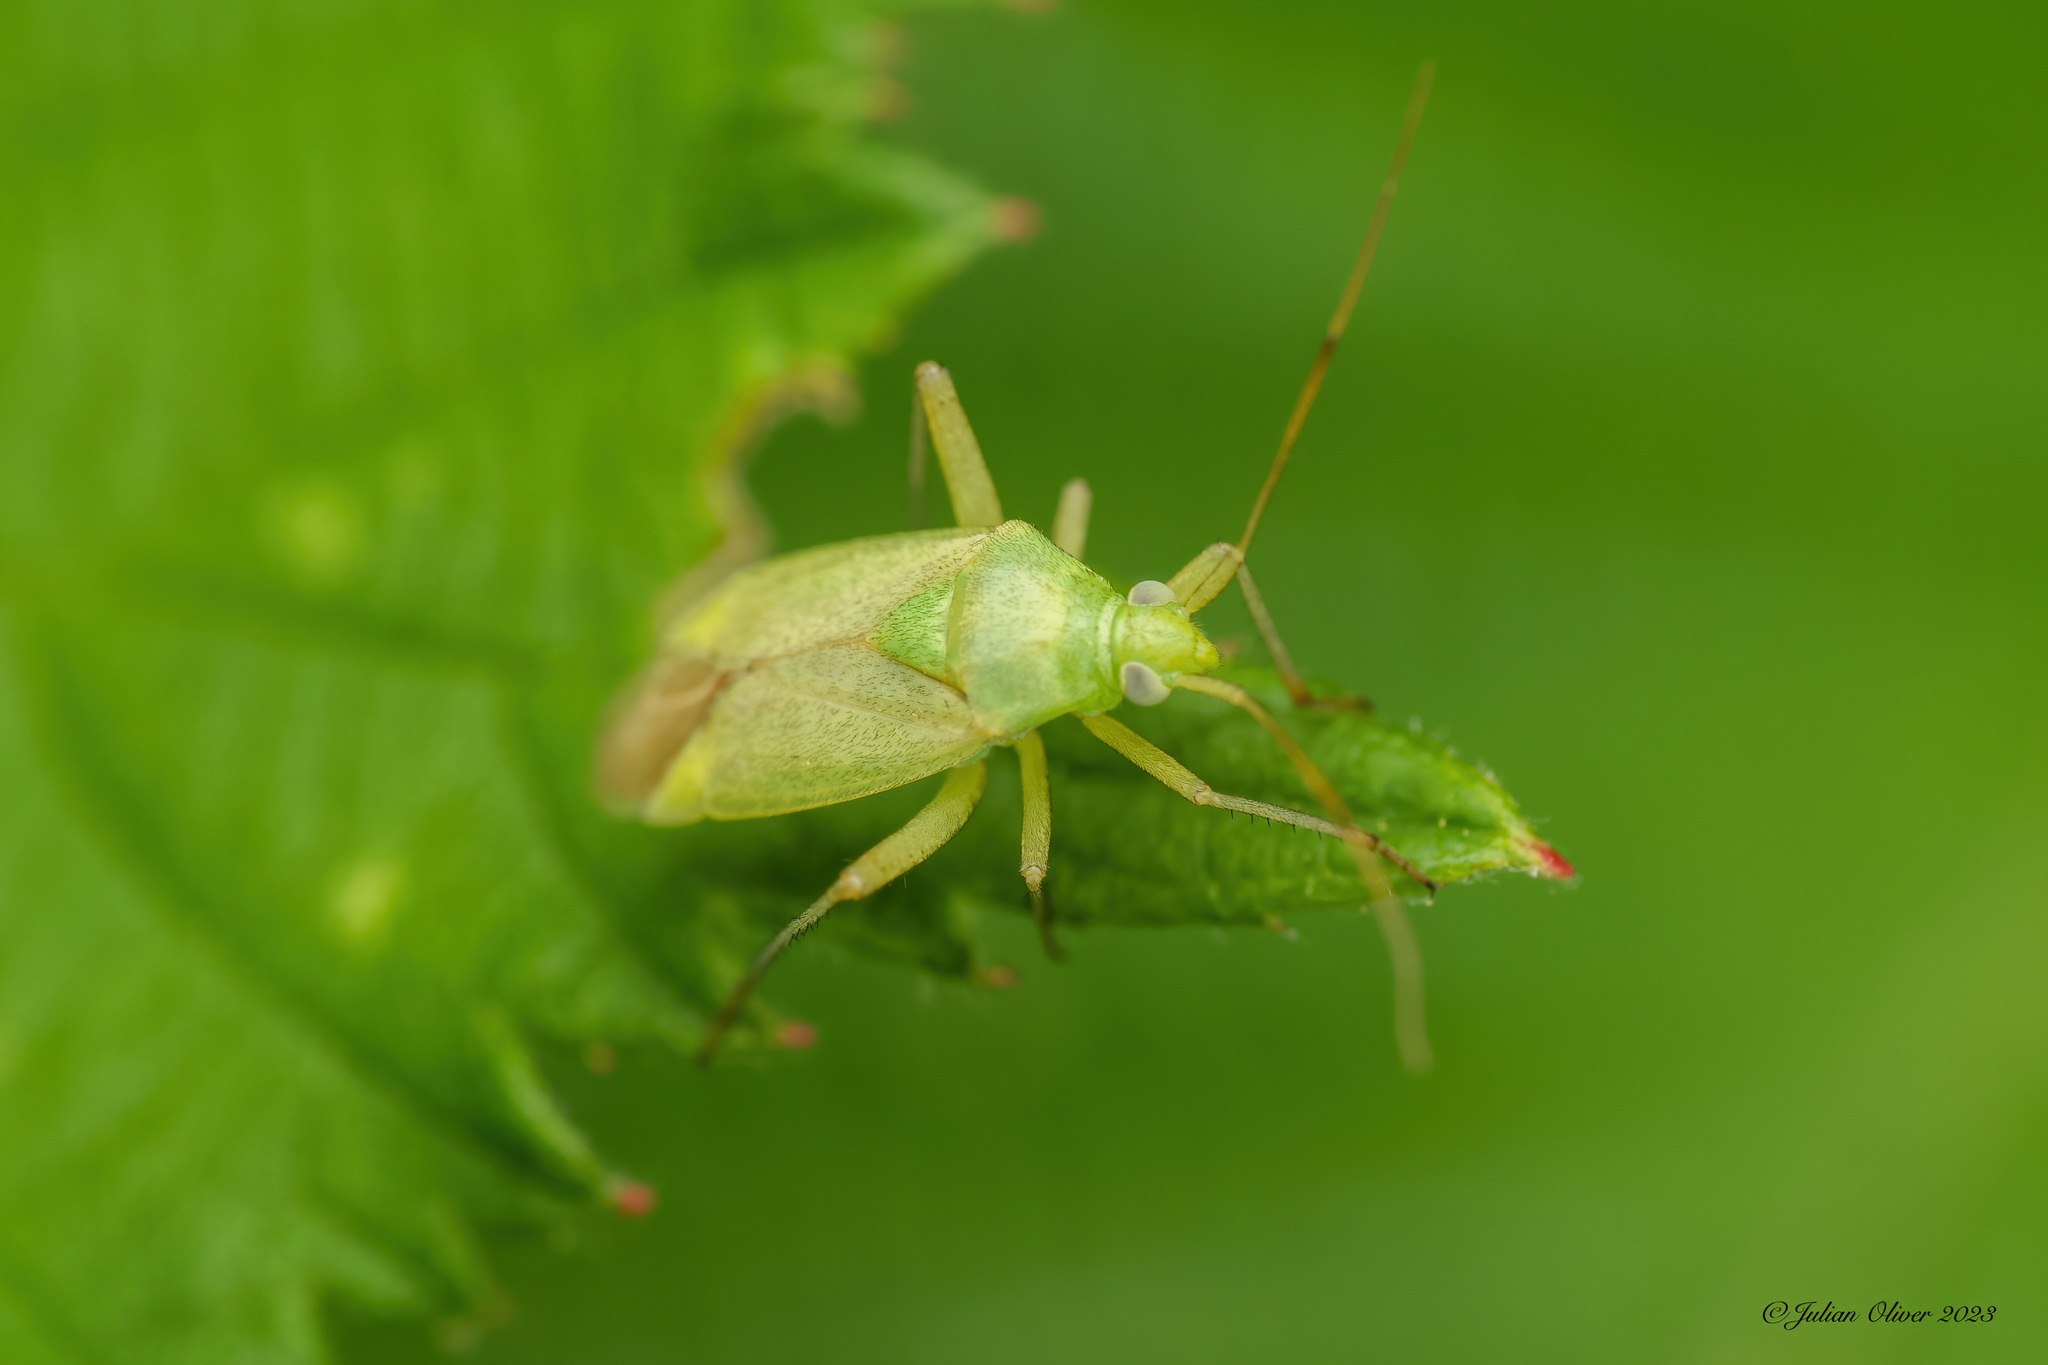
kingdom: Animalia
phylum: Arthropoda
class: Insecta
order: Hemiptera
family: Miridae
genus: Closterotomus
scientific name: Closterotomus norvegicus
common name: Plant bug
